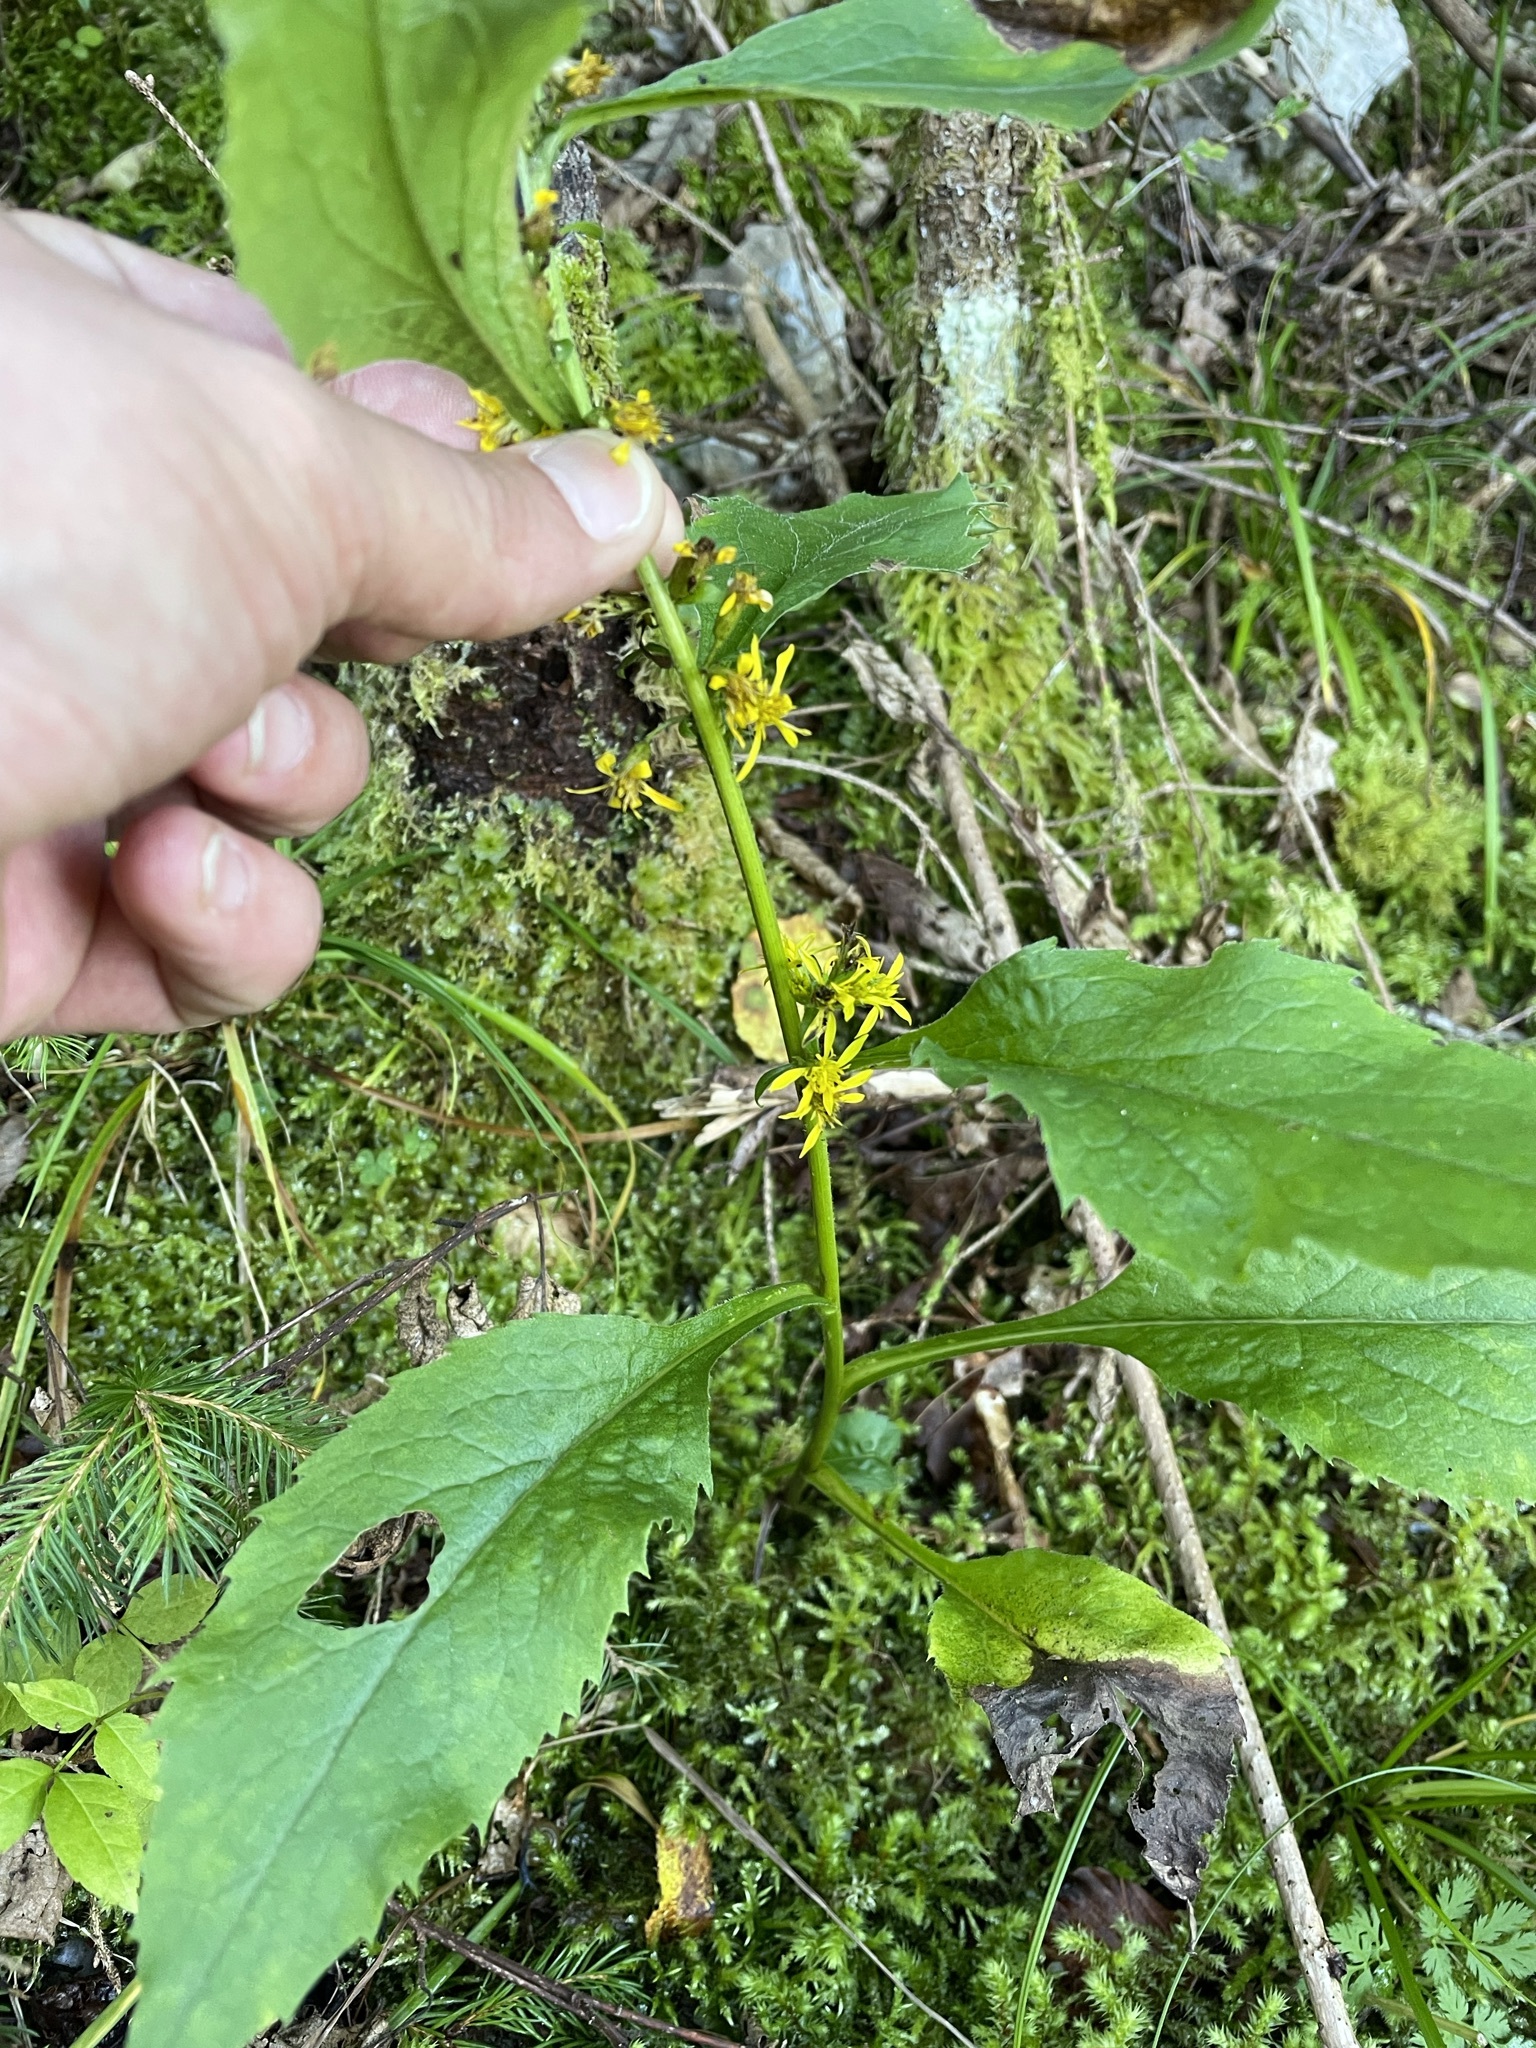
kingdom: Plantae
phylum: Tracheophyta
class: Magnoliopsida
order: Asterales
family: Asteraceae
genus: Solidago
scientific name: Solidago virgaurea
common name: Goldenrod
